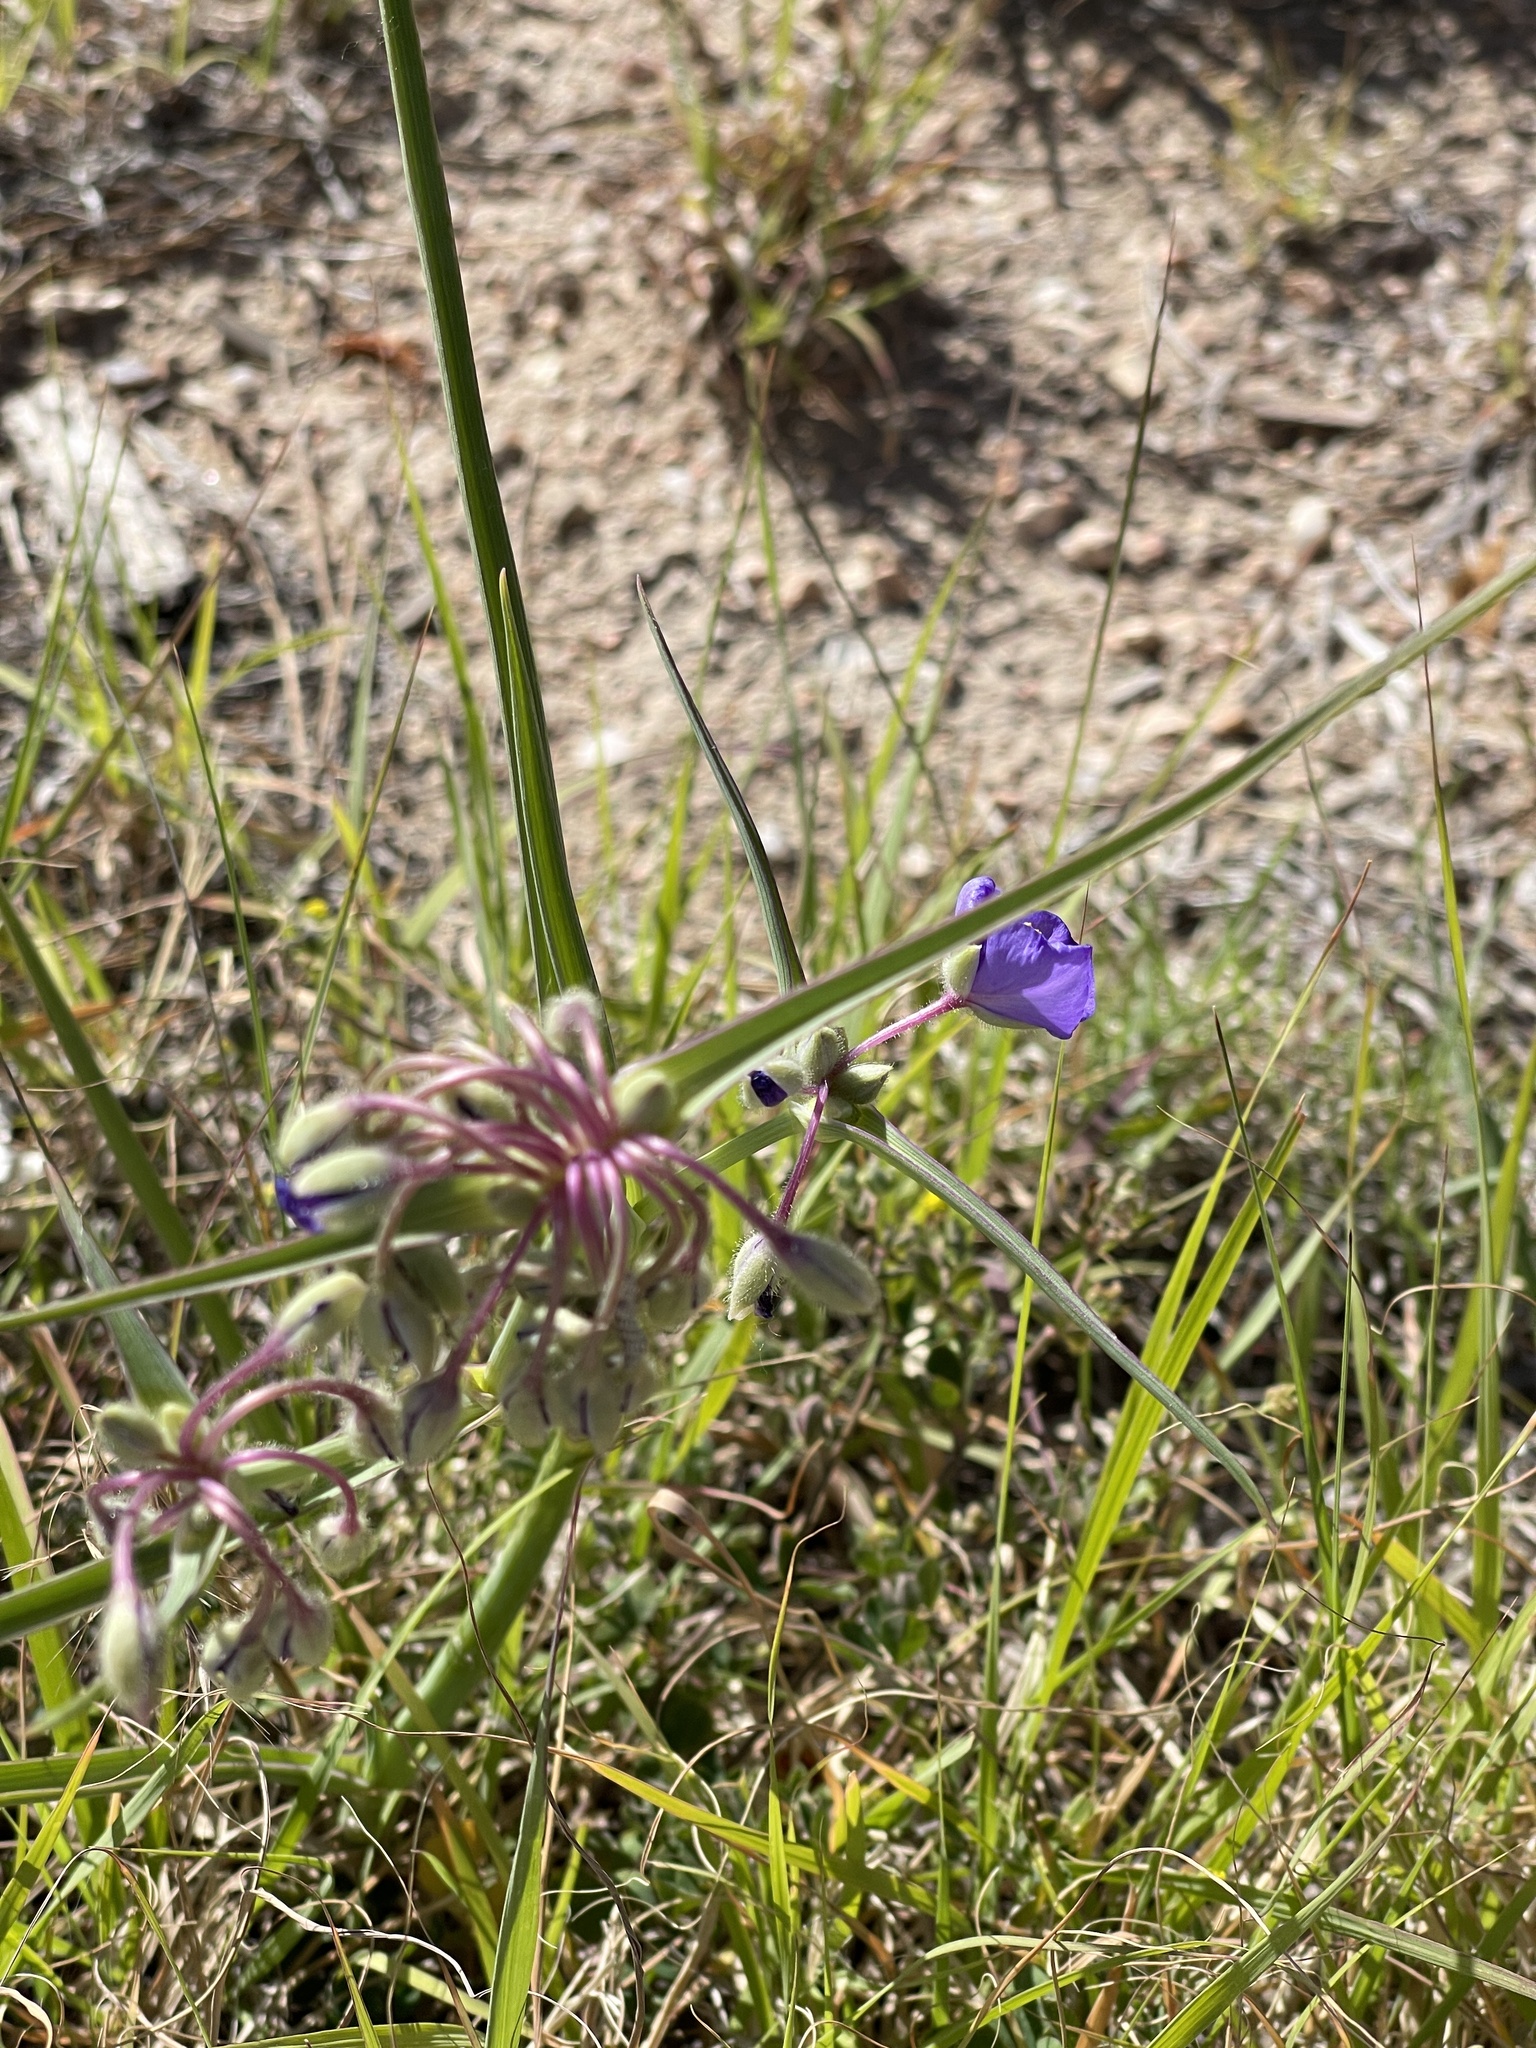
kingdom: Plantae
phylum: Tracheophyta
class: Liliopsida
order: Commelinales
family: Commelinaceae
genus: Tradescantia
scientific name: Tradescantia occidentalis
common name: Prairie spiderwort
